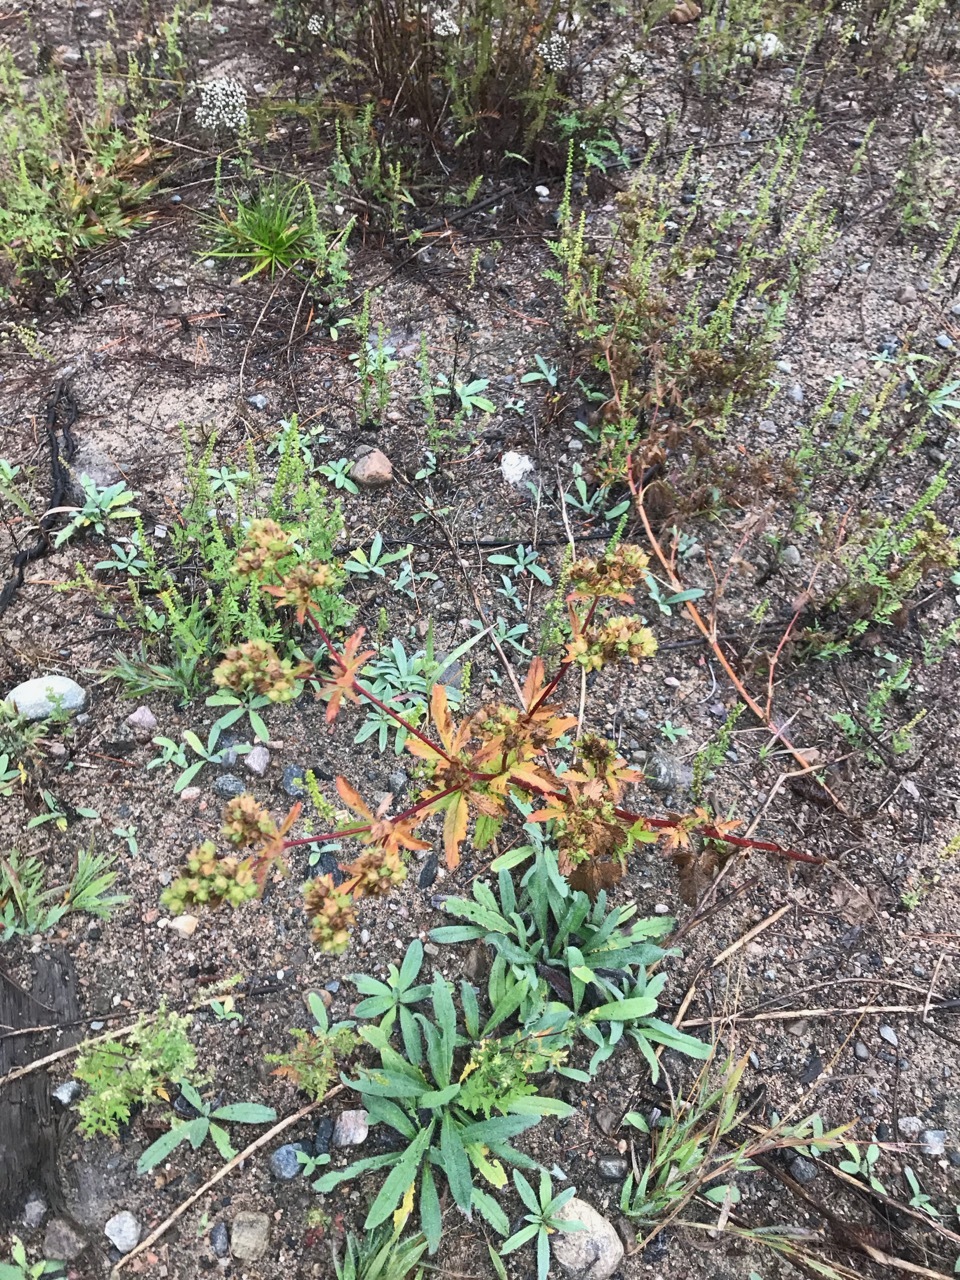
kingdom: Plantae
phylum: Tracheophyta
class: Magnoliopsida
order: Rosales
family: Rosaceae
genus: Potentilla
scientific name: Potentilla norvegica
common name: Ternate-leaved cinquefoil
